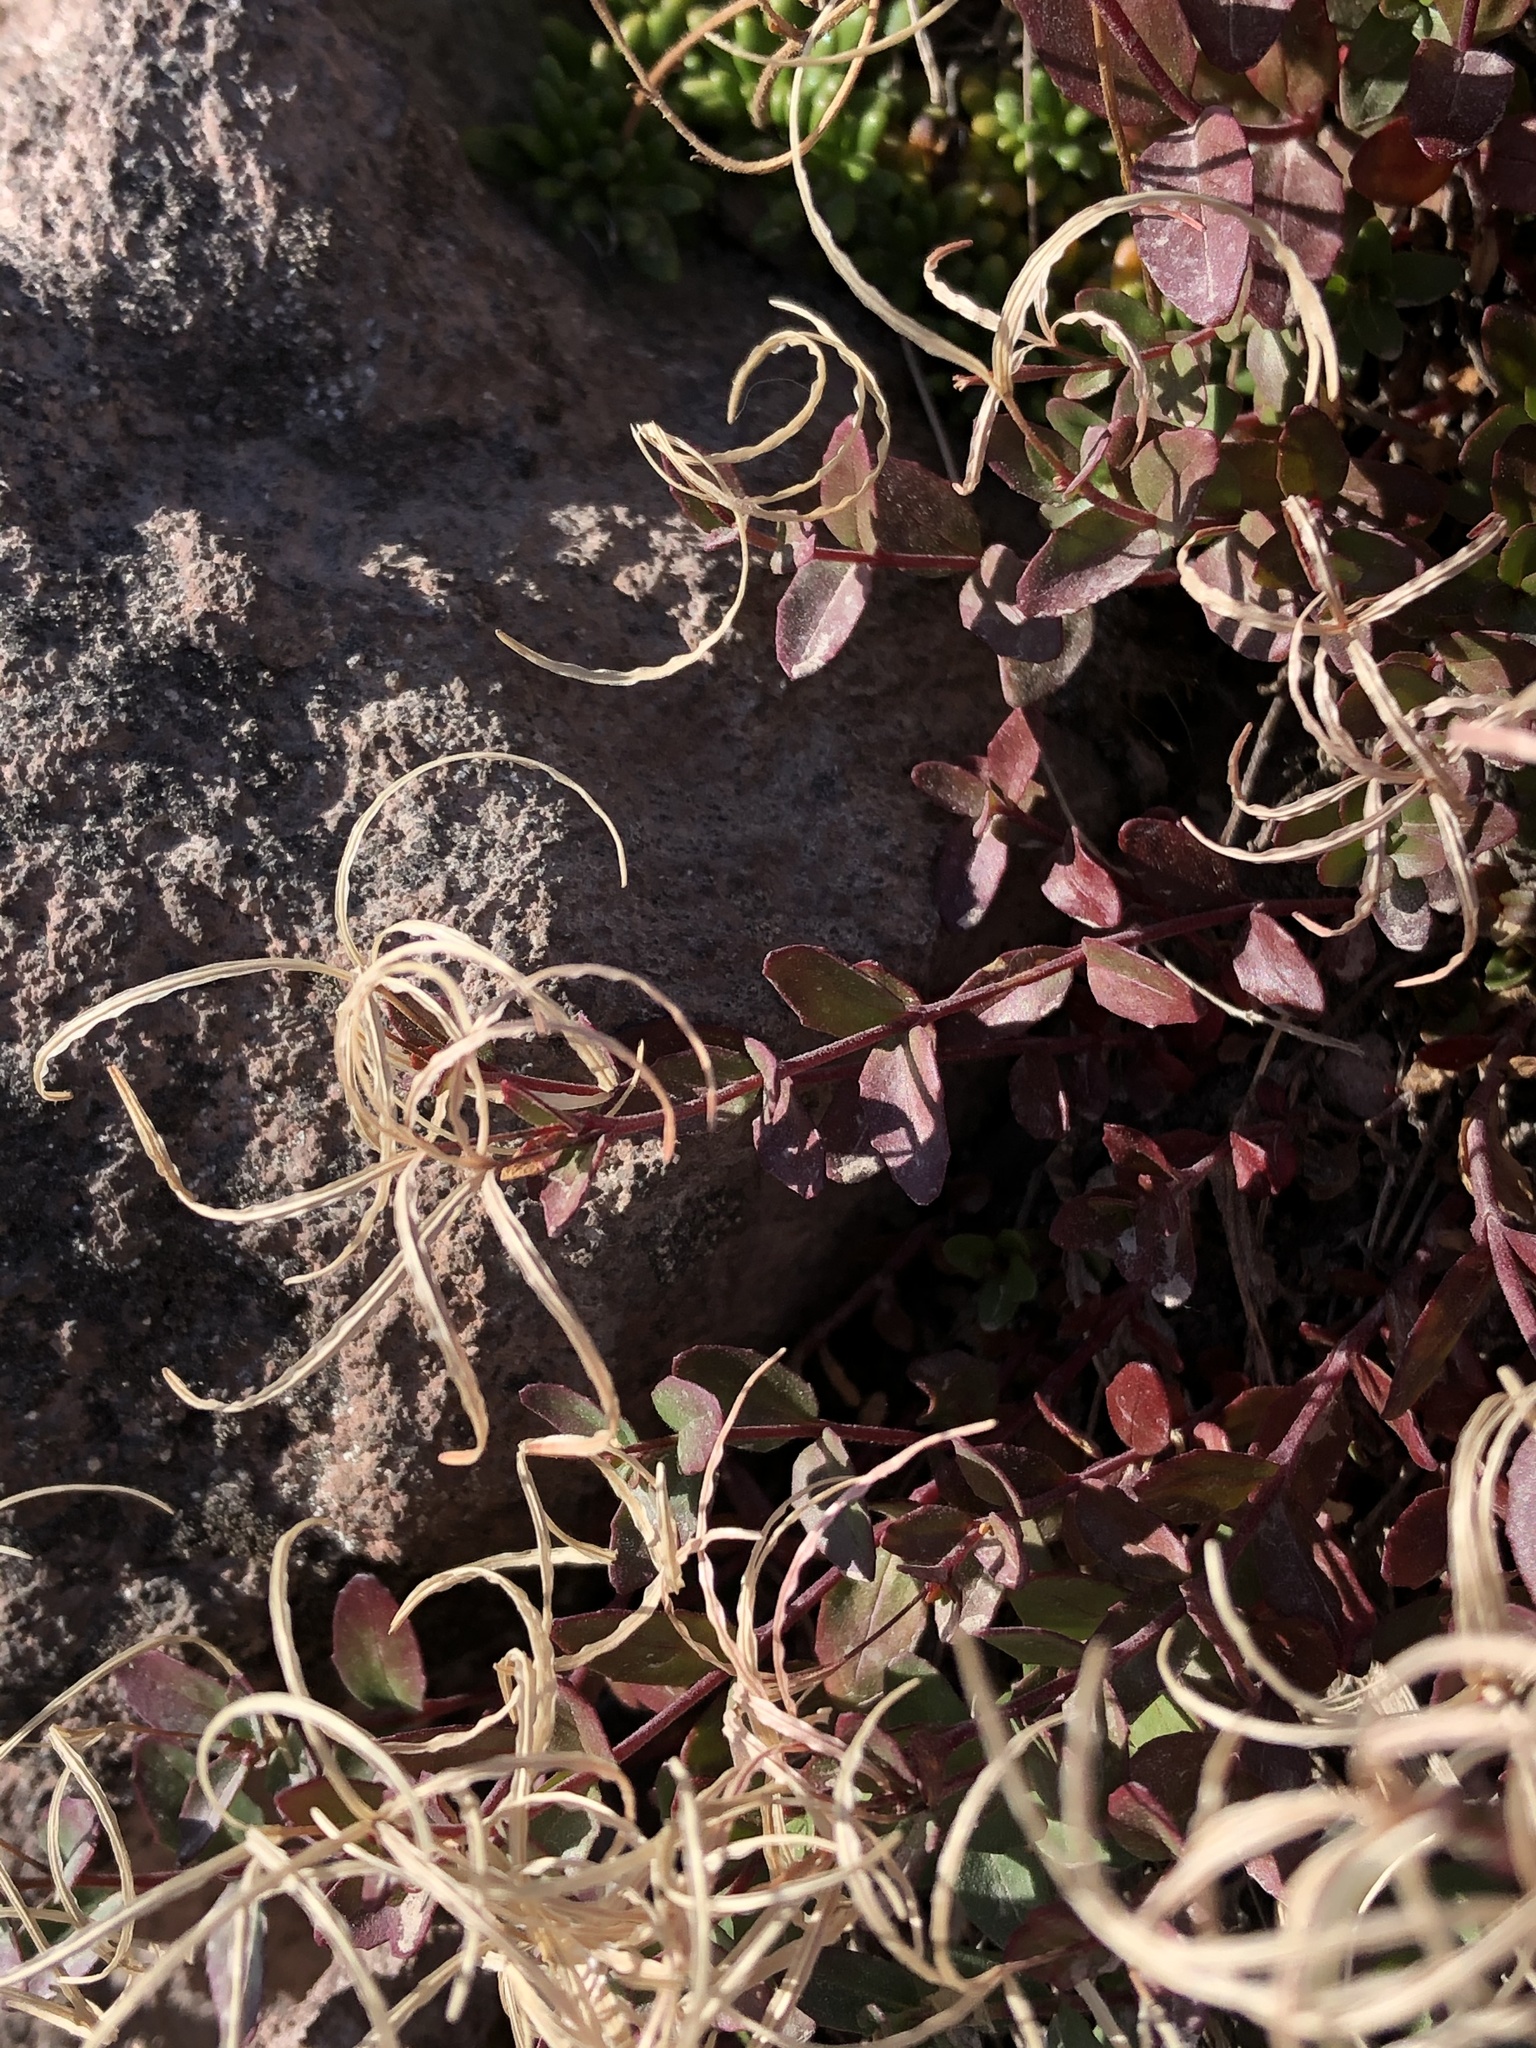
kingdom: Plantae
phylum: Tracheophyta
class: Magnoliopsida
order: Myrtales
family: Onagraceae
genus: Epilobium
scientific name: Epilobium minutum
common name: Chaparral willowherb
